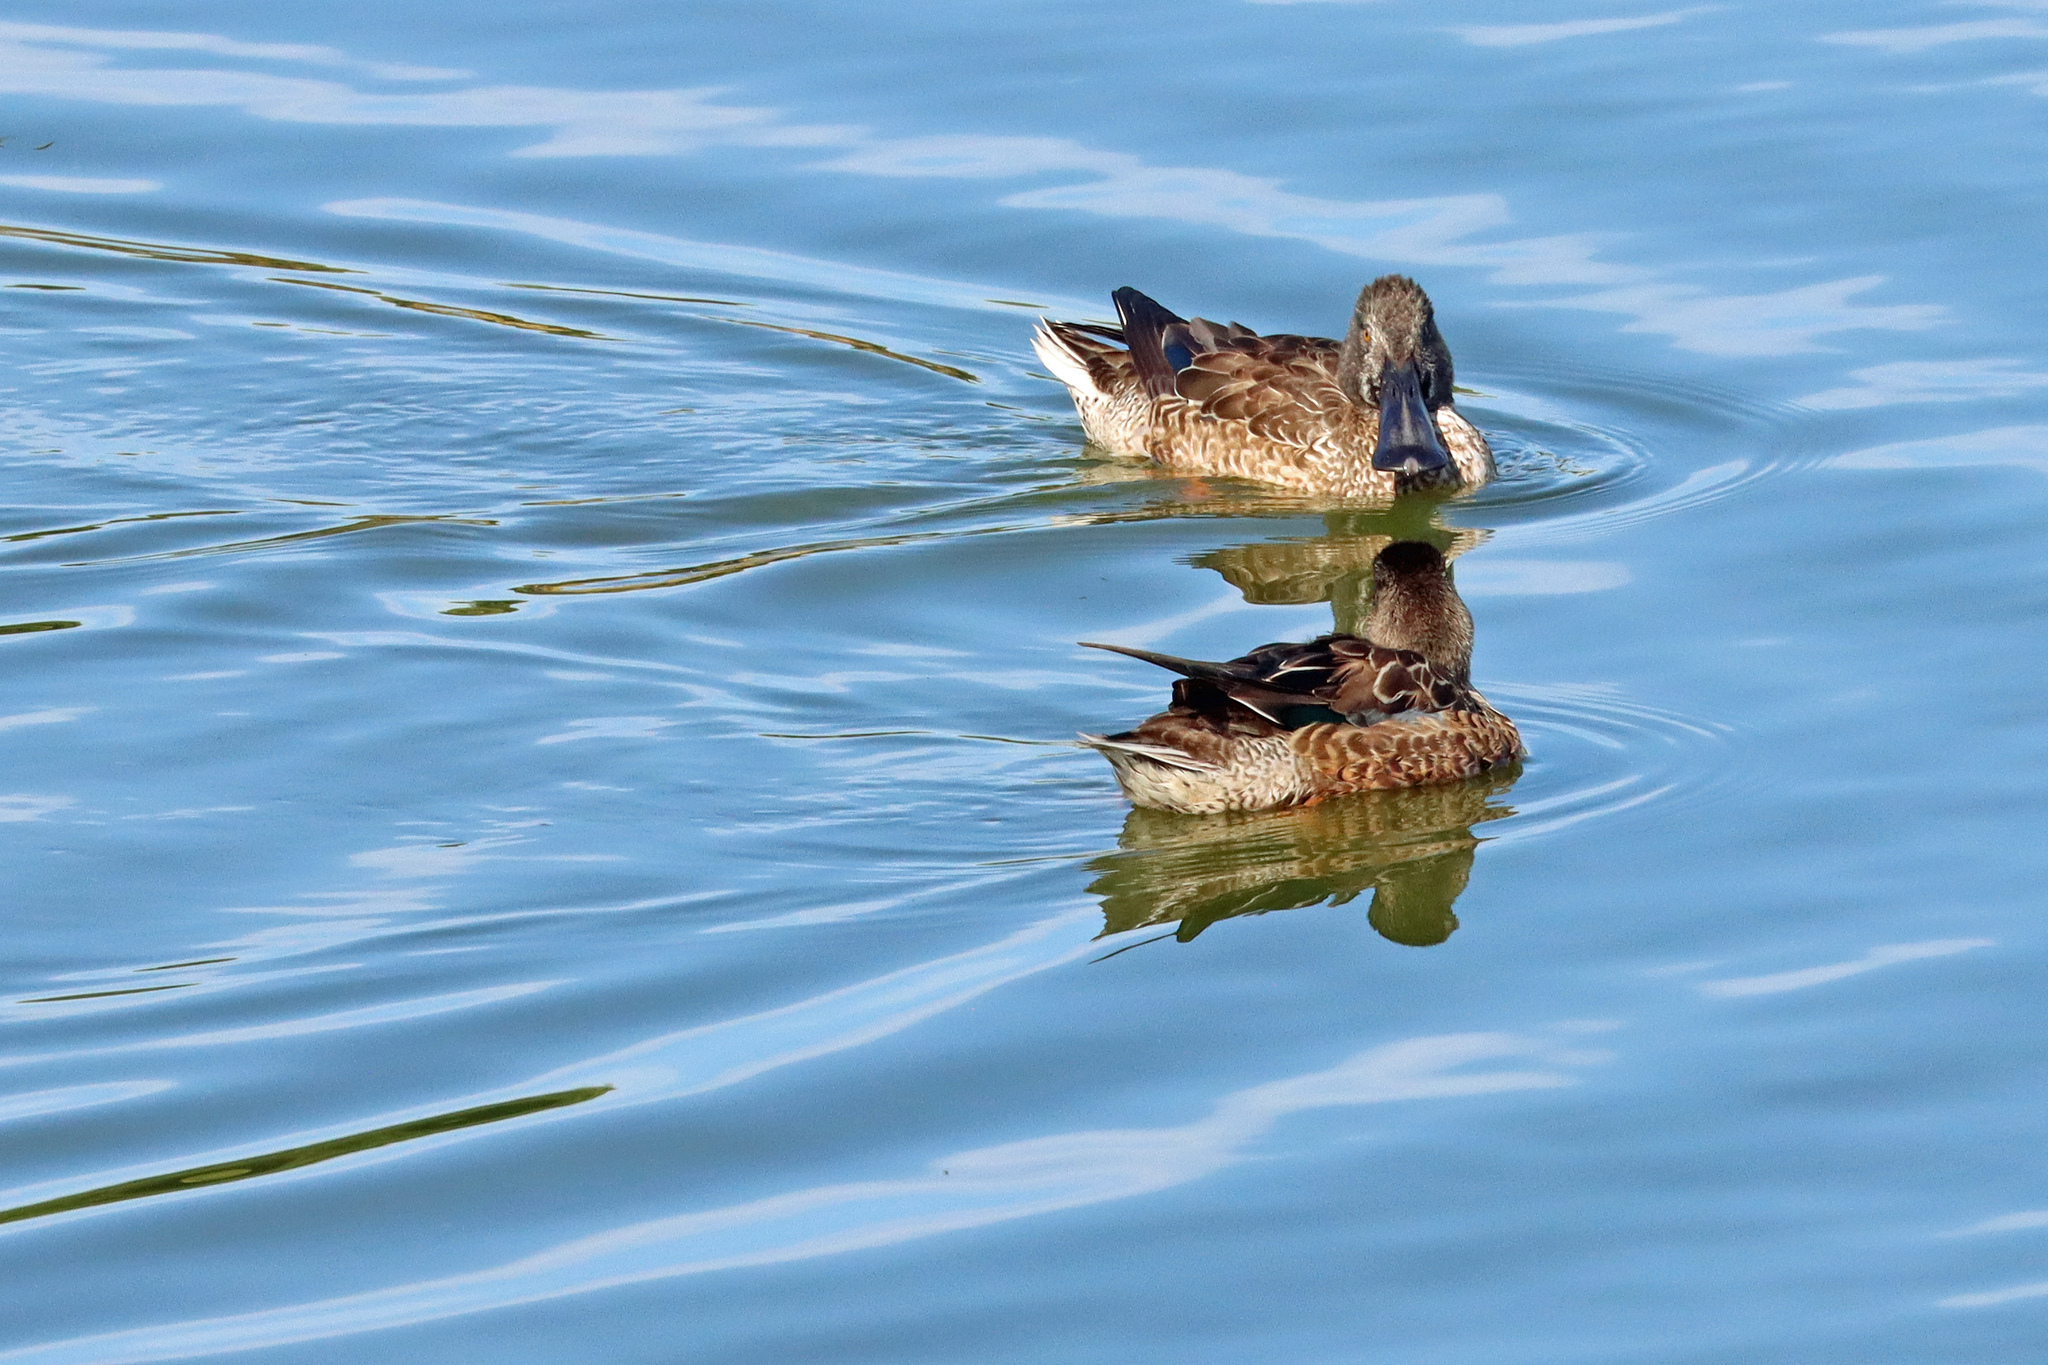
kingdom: Animalia
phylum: Chordata
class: Aves
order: Anseriformes
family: Anatidae
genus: Spatula
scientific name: Spatula clypeata
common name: Northern shoveler
